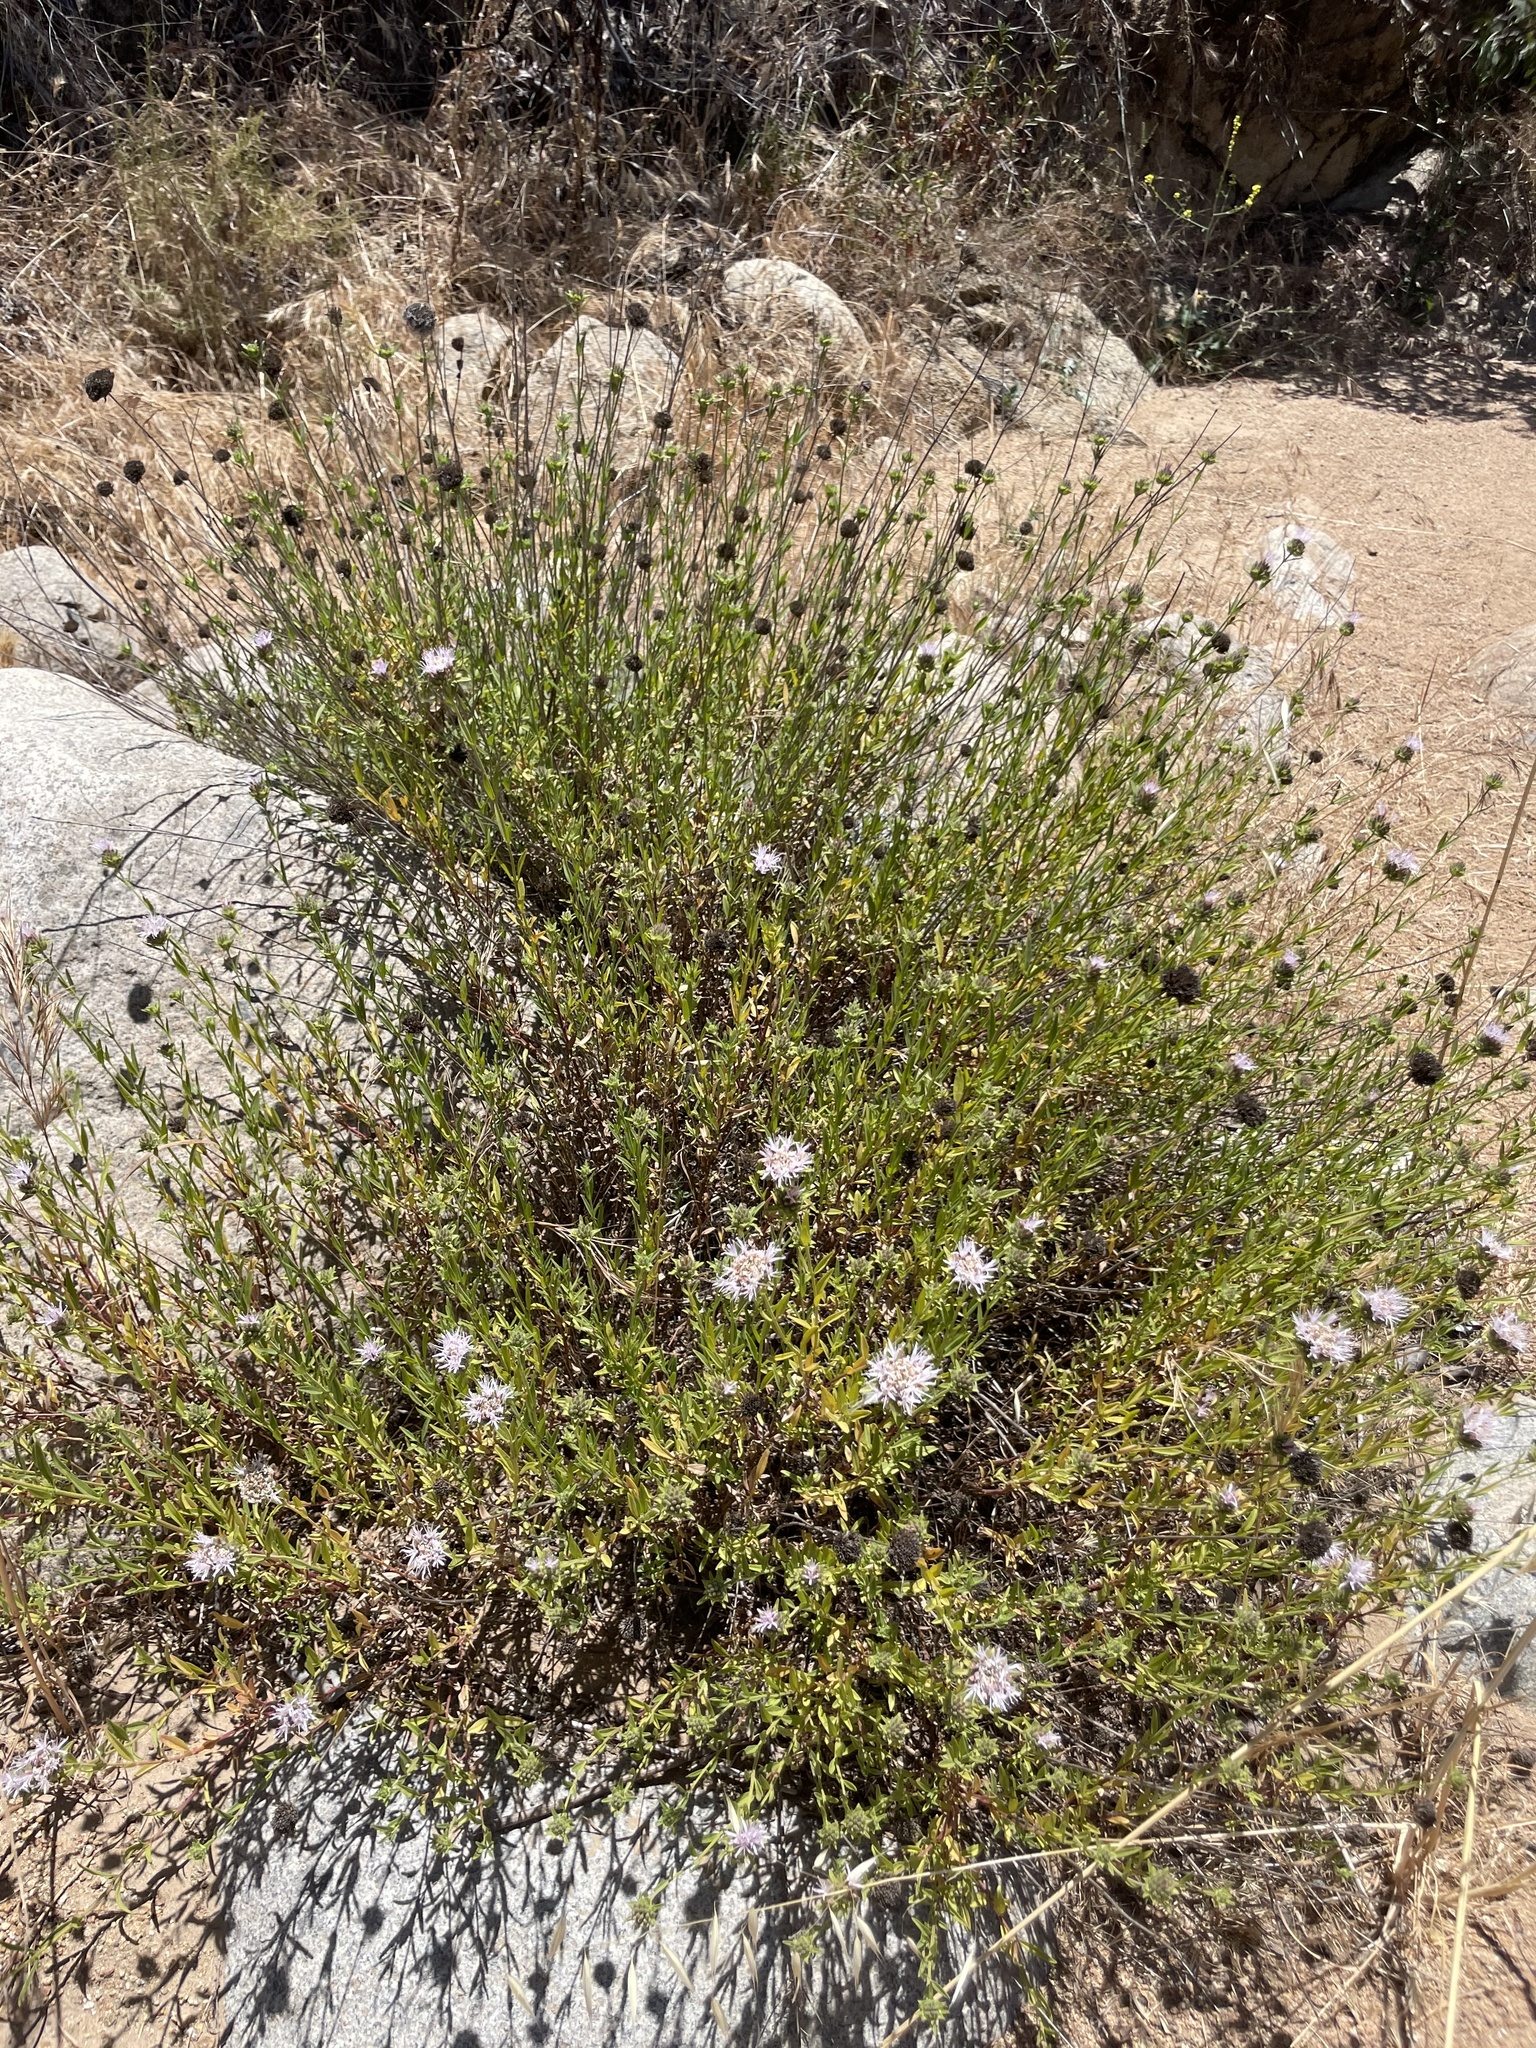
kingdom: Plantae
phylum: Tracheophyta
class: Magnoliopsida
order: Lamiales
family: Lamiaceae
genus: Monardella
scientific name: Monardella stoneana
